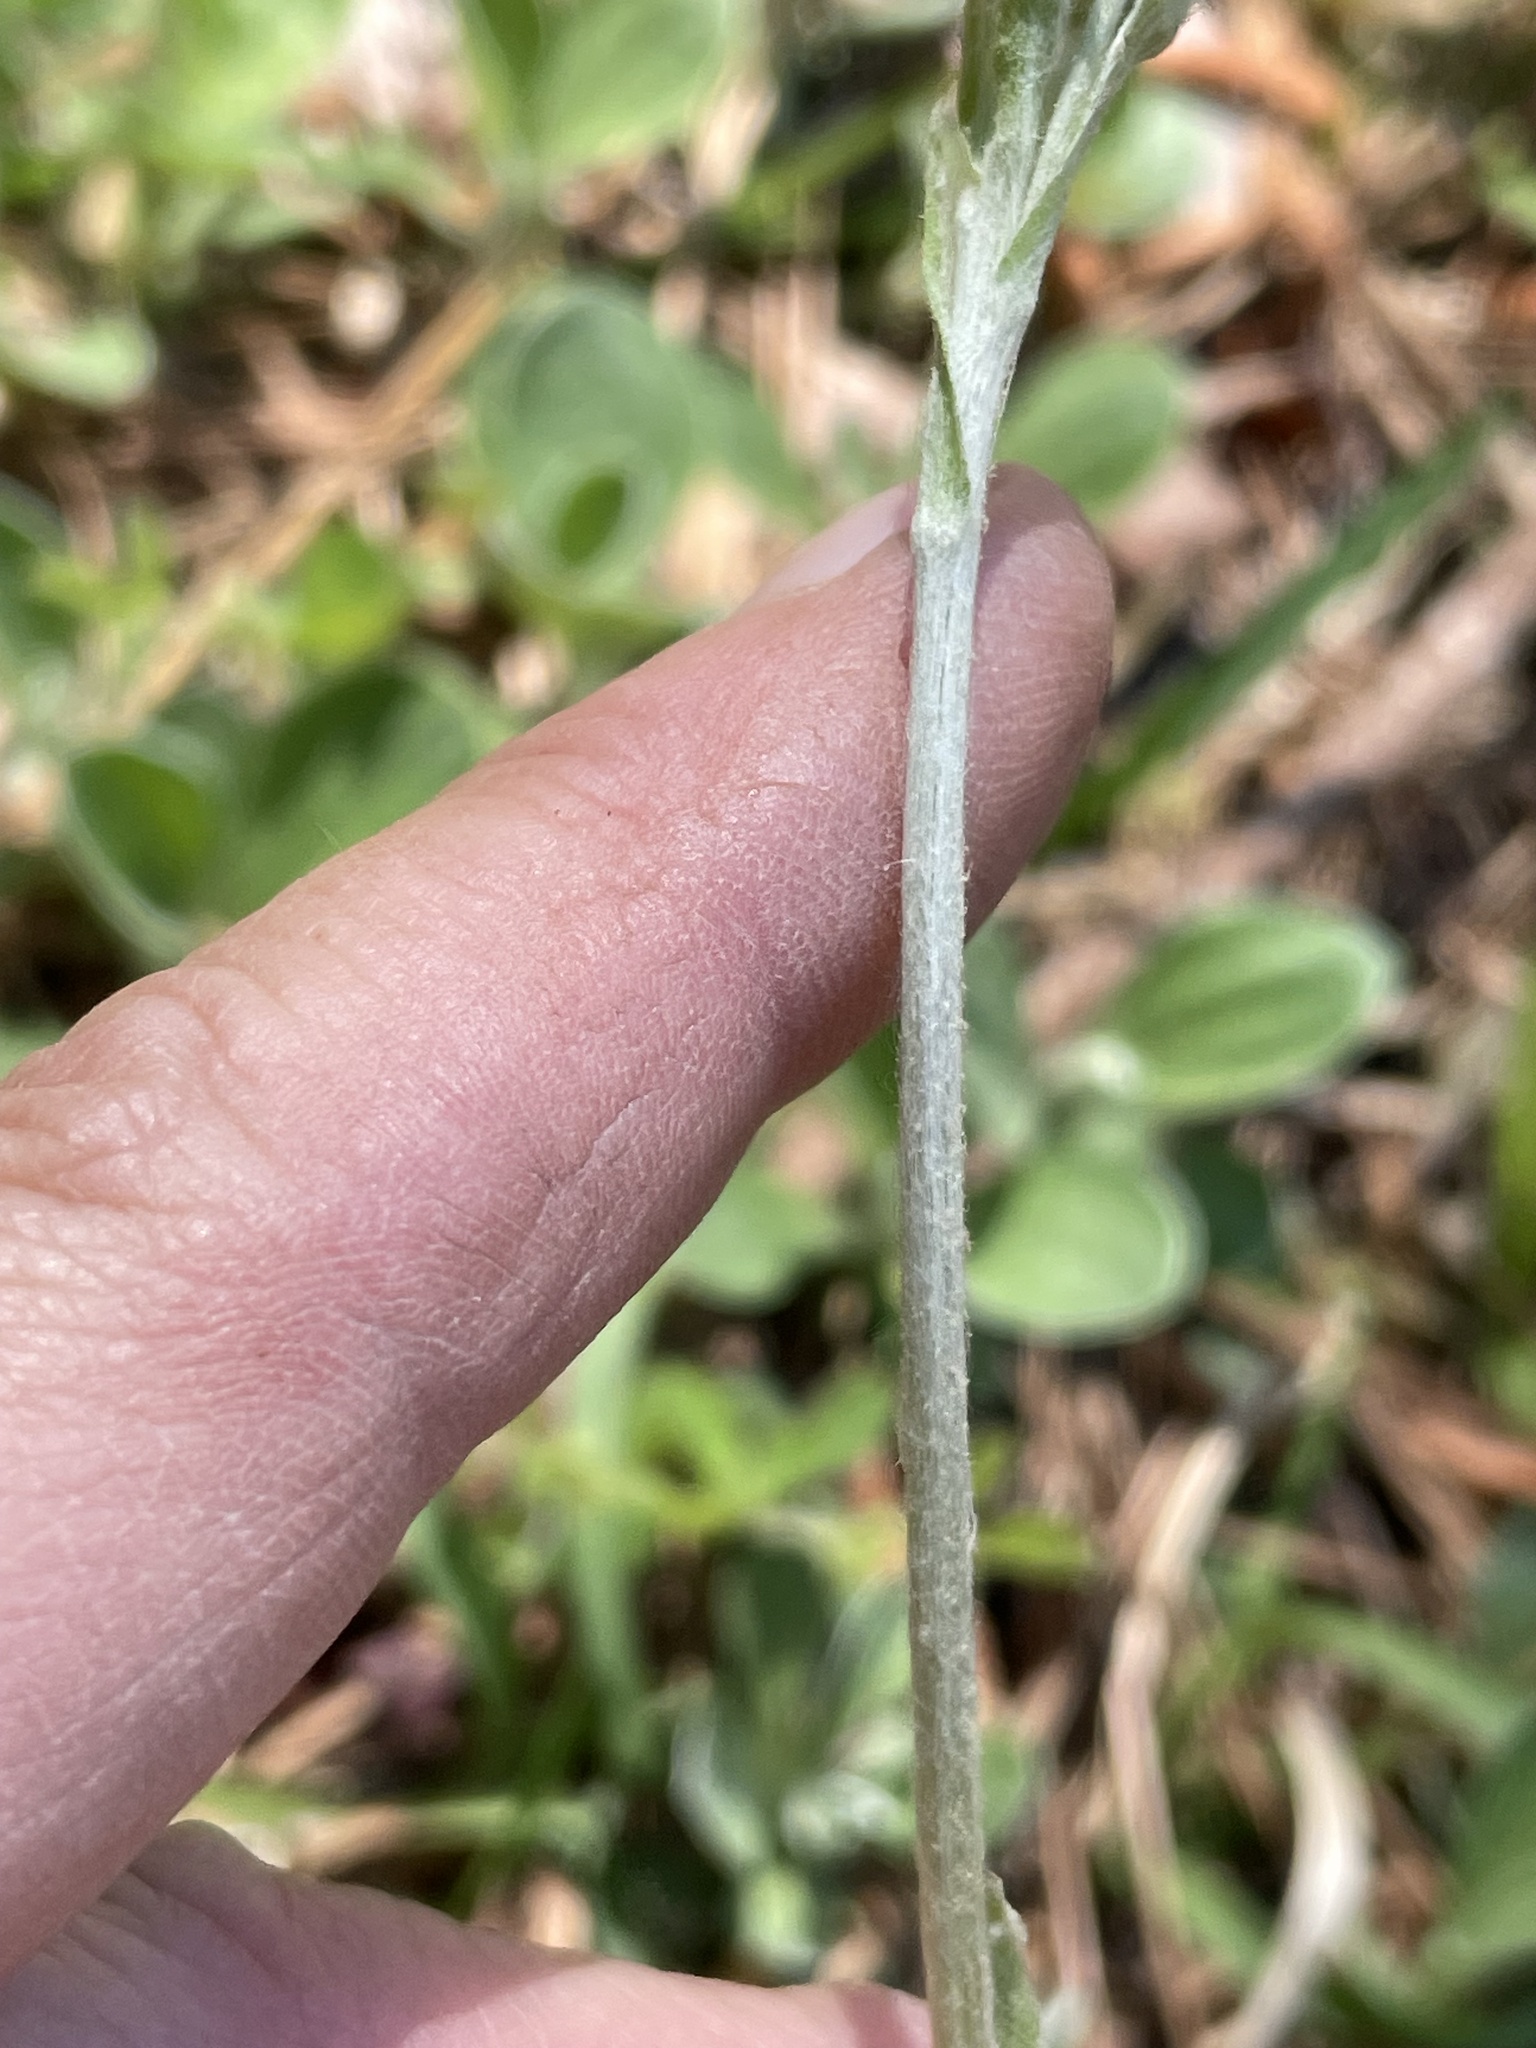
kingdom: Plantae
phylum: Tracheophyta
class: Magnoliopsida
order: Asterales
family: Asteraceae
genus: Antennaria
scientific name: Antennaria parlinii
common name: Parlin's pussytoes
